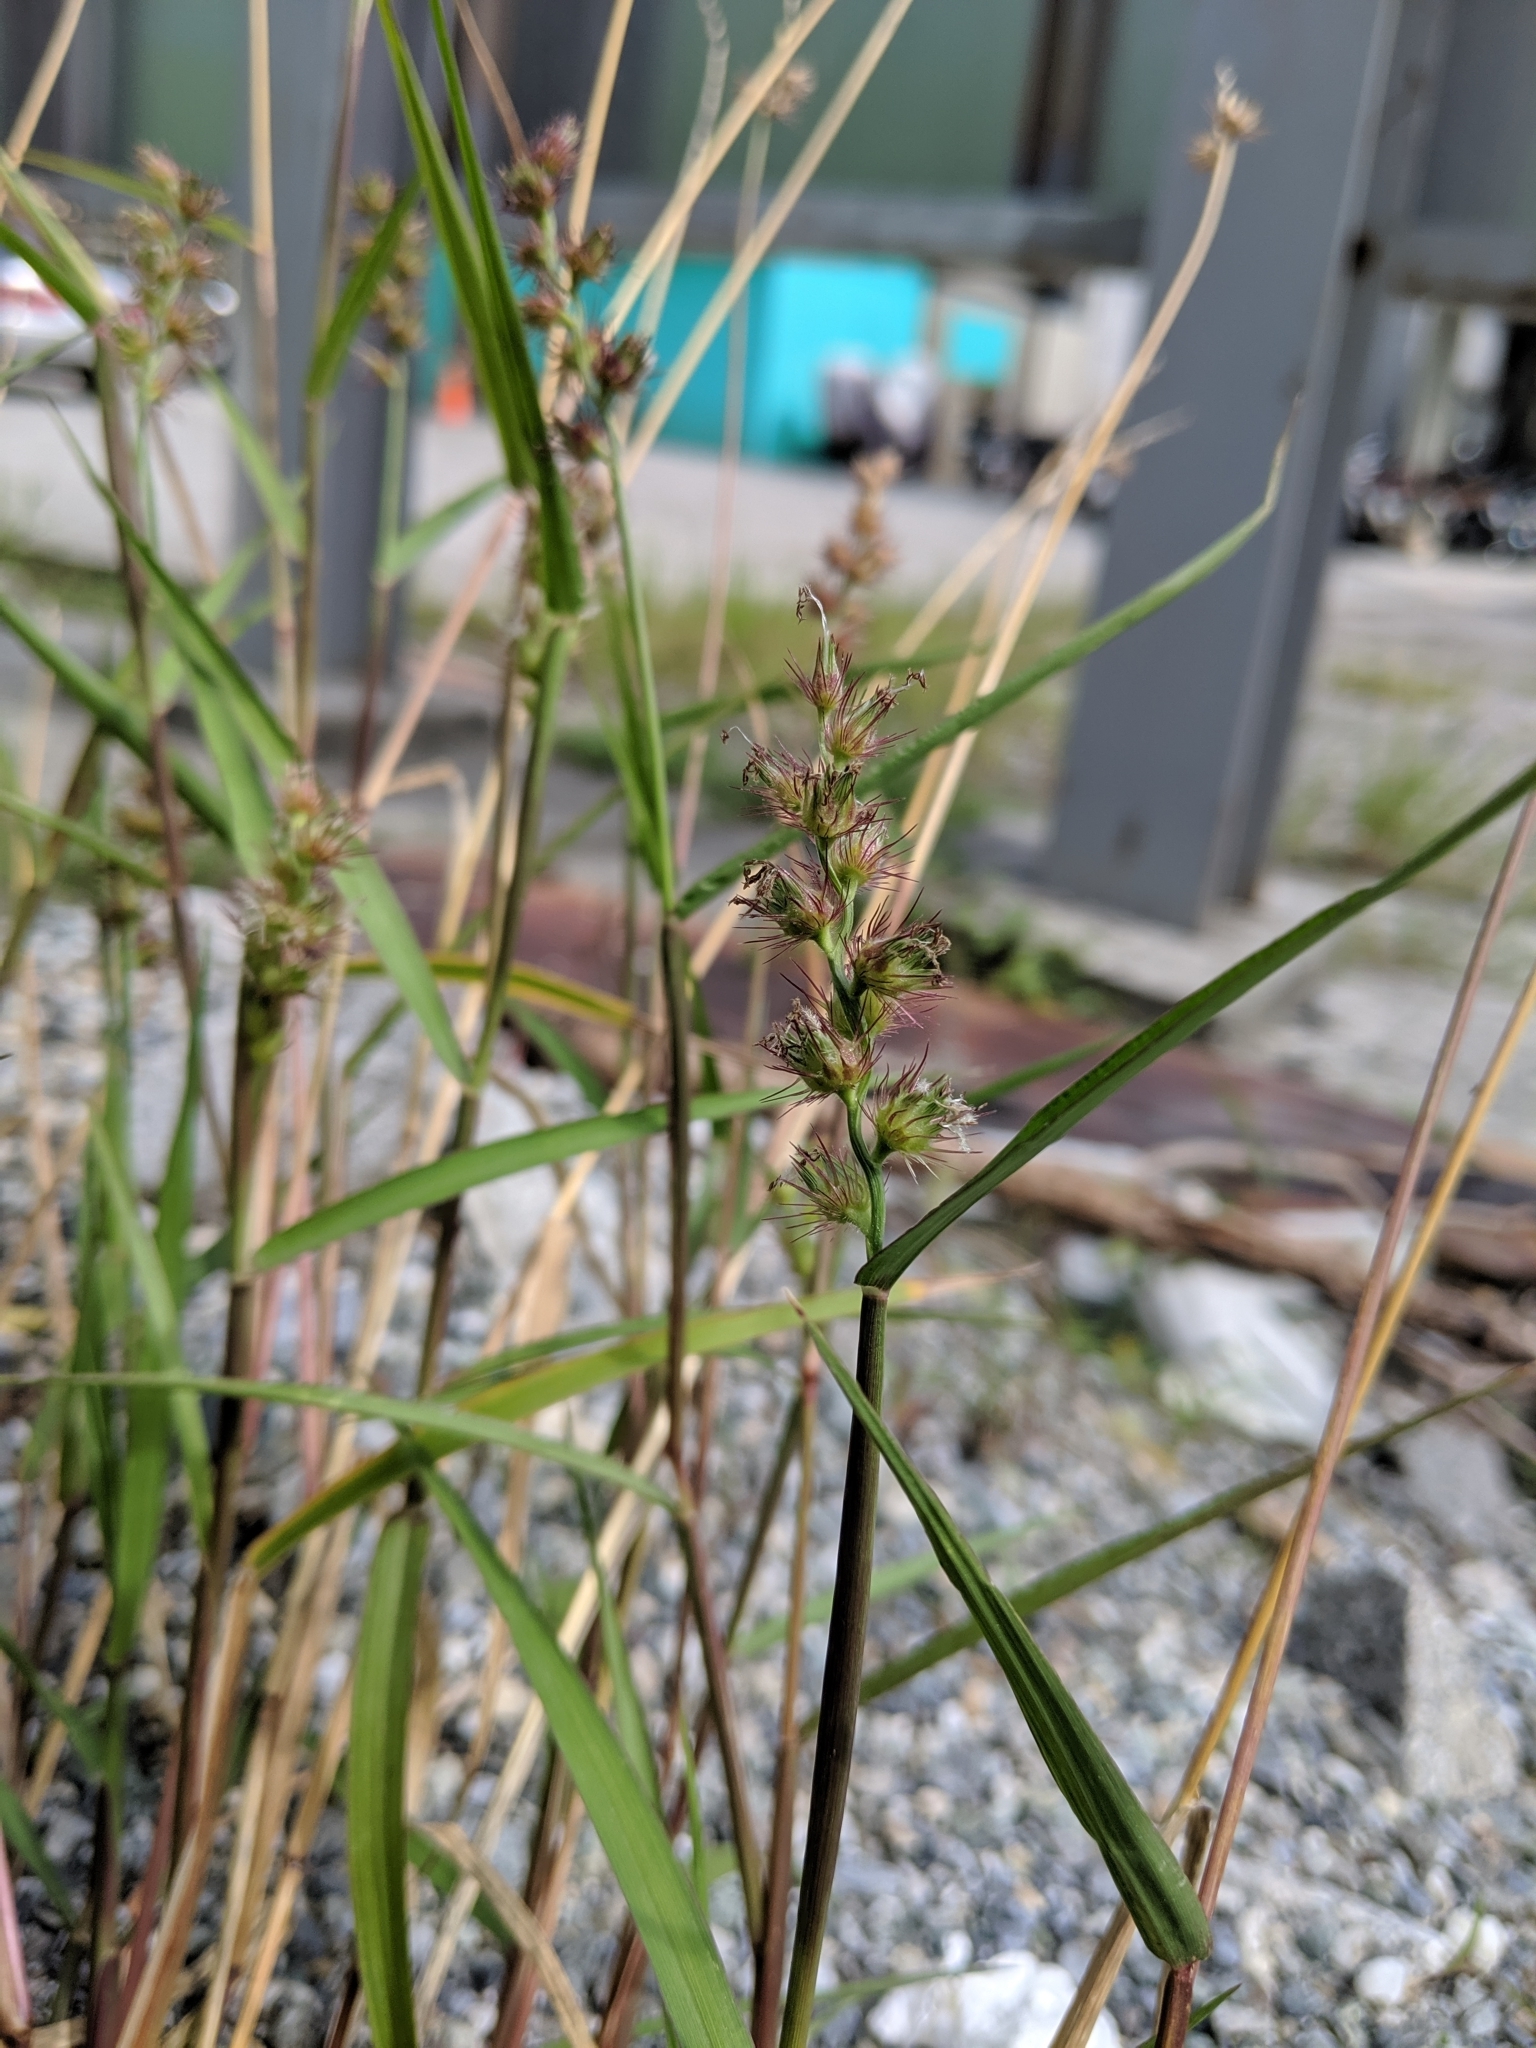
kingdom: Plantae
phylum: Tracheophyta
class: Liliopsida
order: Poales
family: Poaceae
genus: Cenchrus
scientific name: Cenchrus echinatus
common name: Southern sandbur
